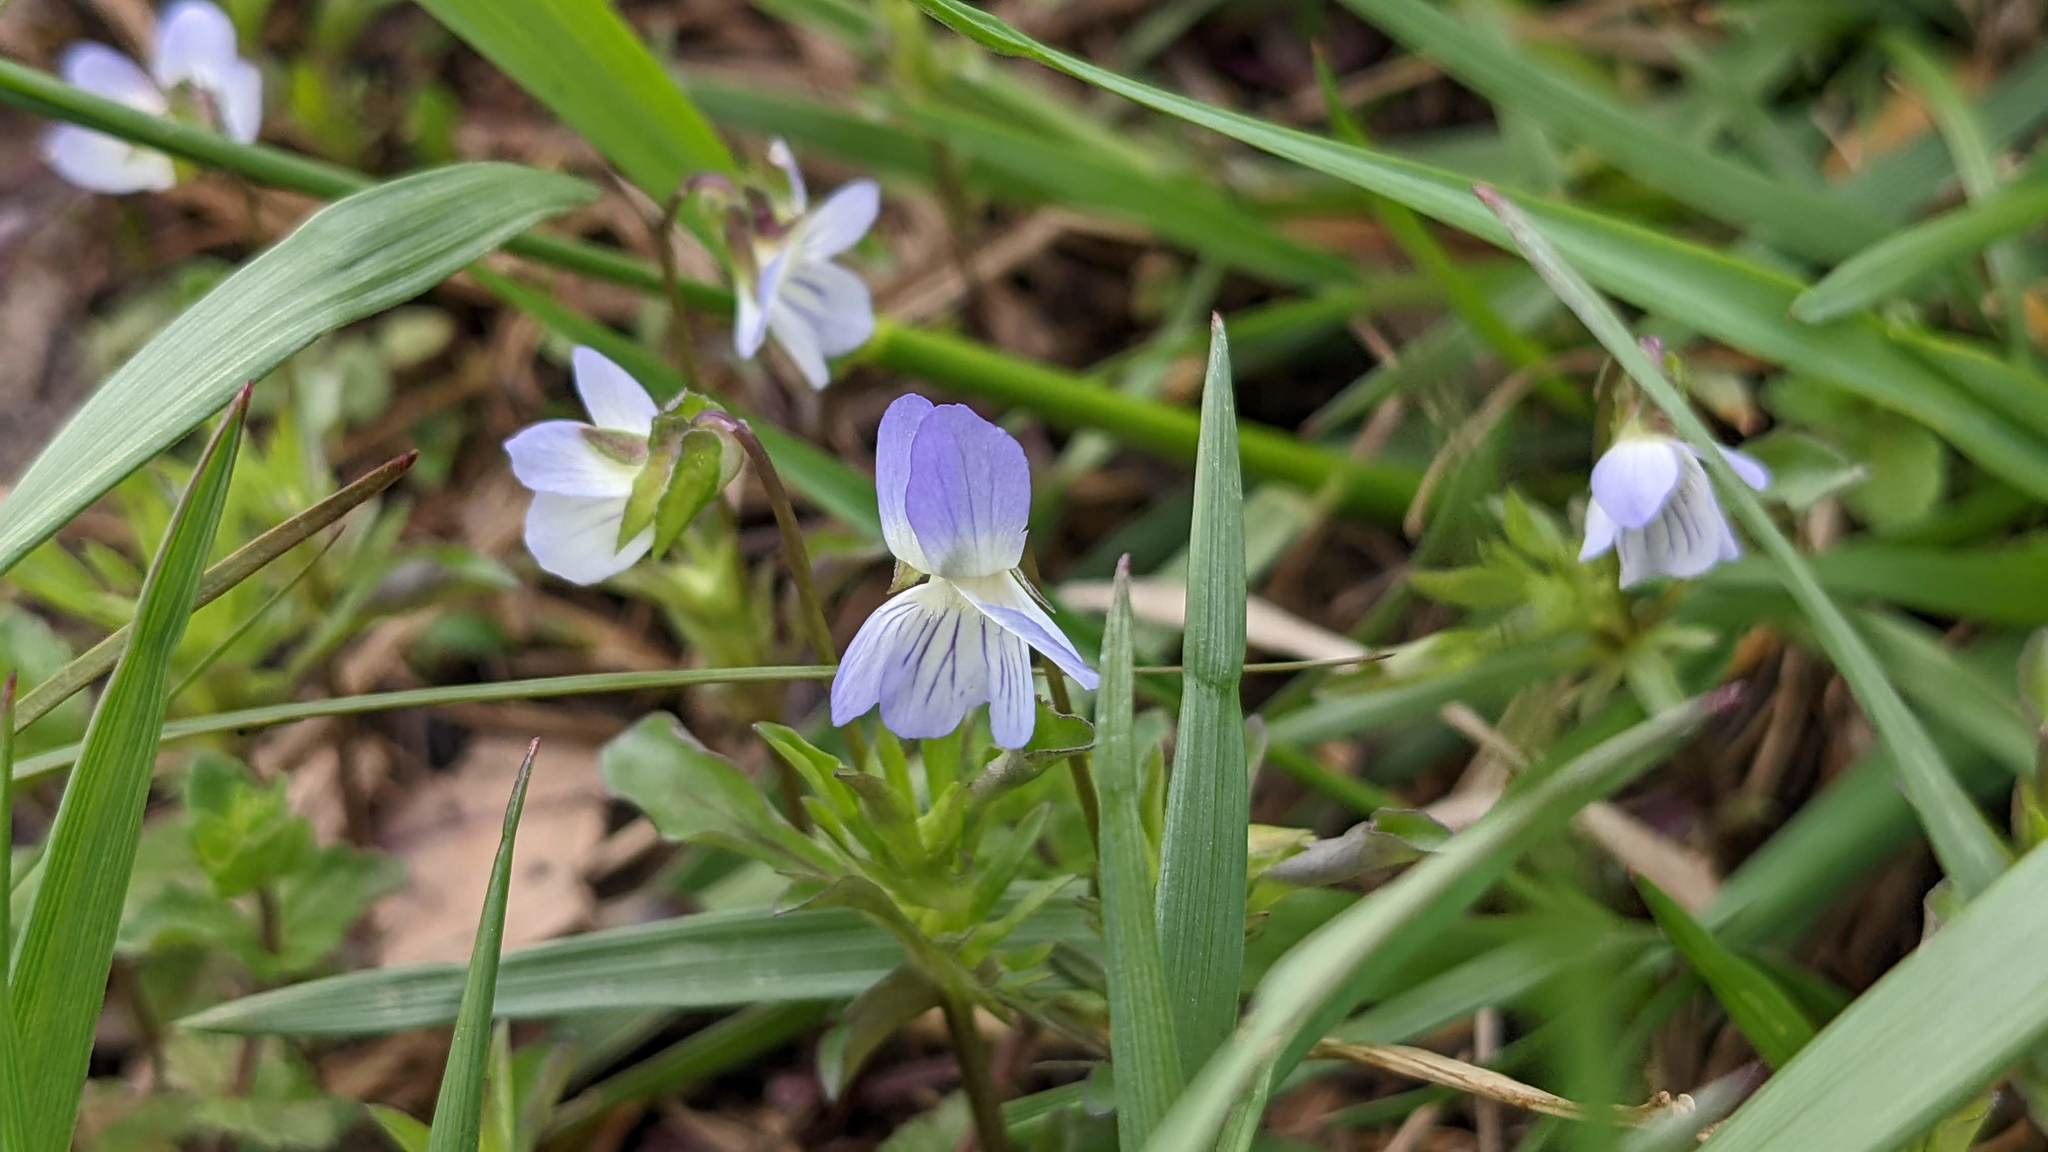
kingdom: Plantae
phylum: Tracheophyta
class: Magnoliopsida
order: Malpighiales
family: Violaceae
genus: Viola
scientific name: Viola rafinesquei
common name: American field pansy
